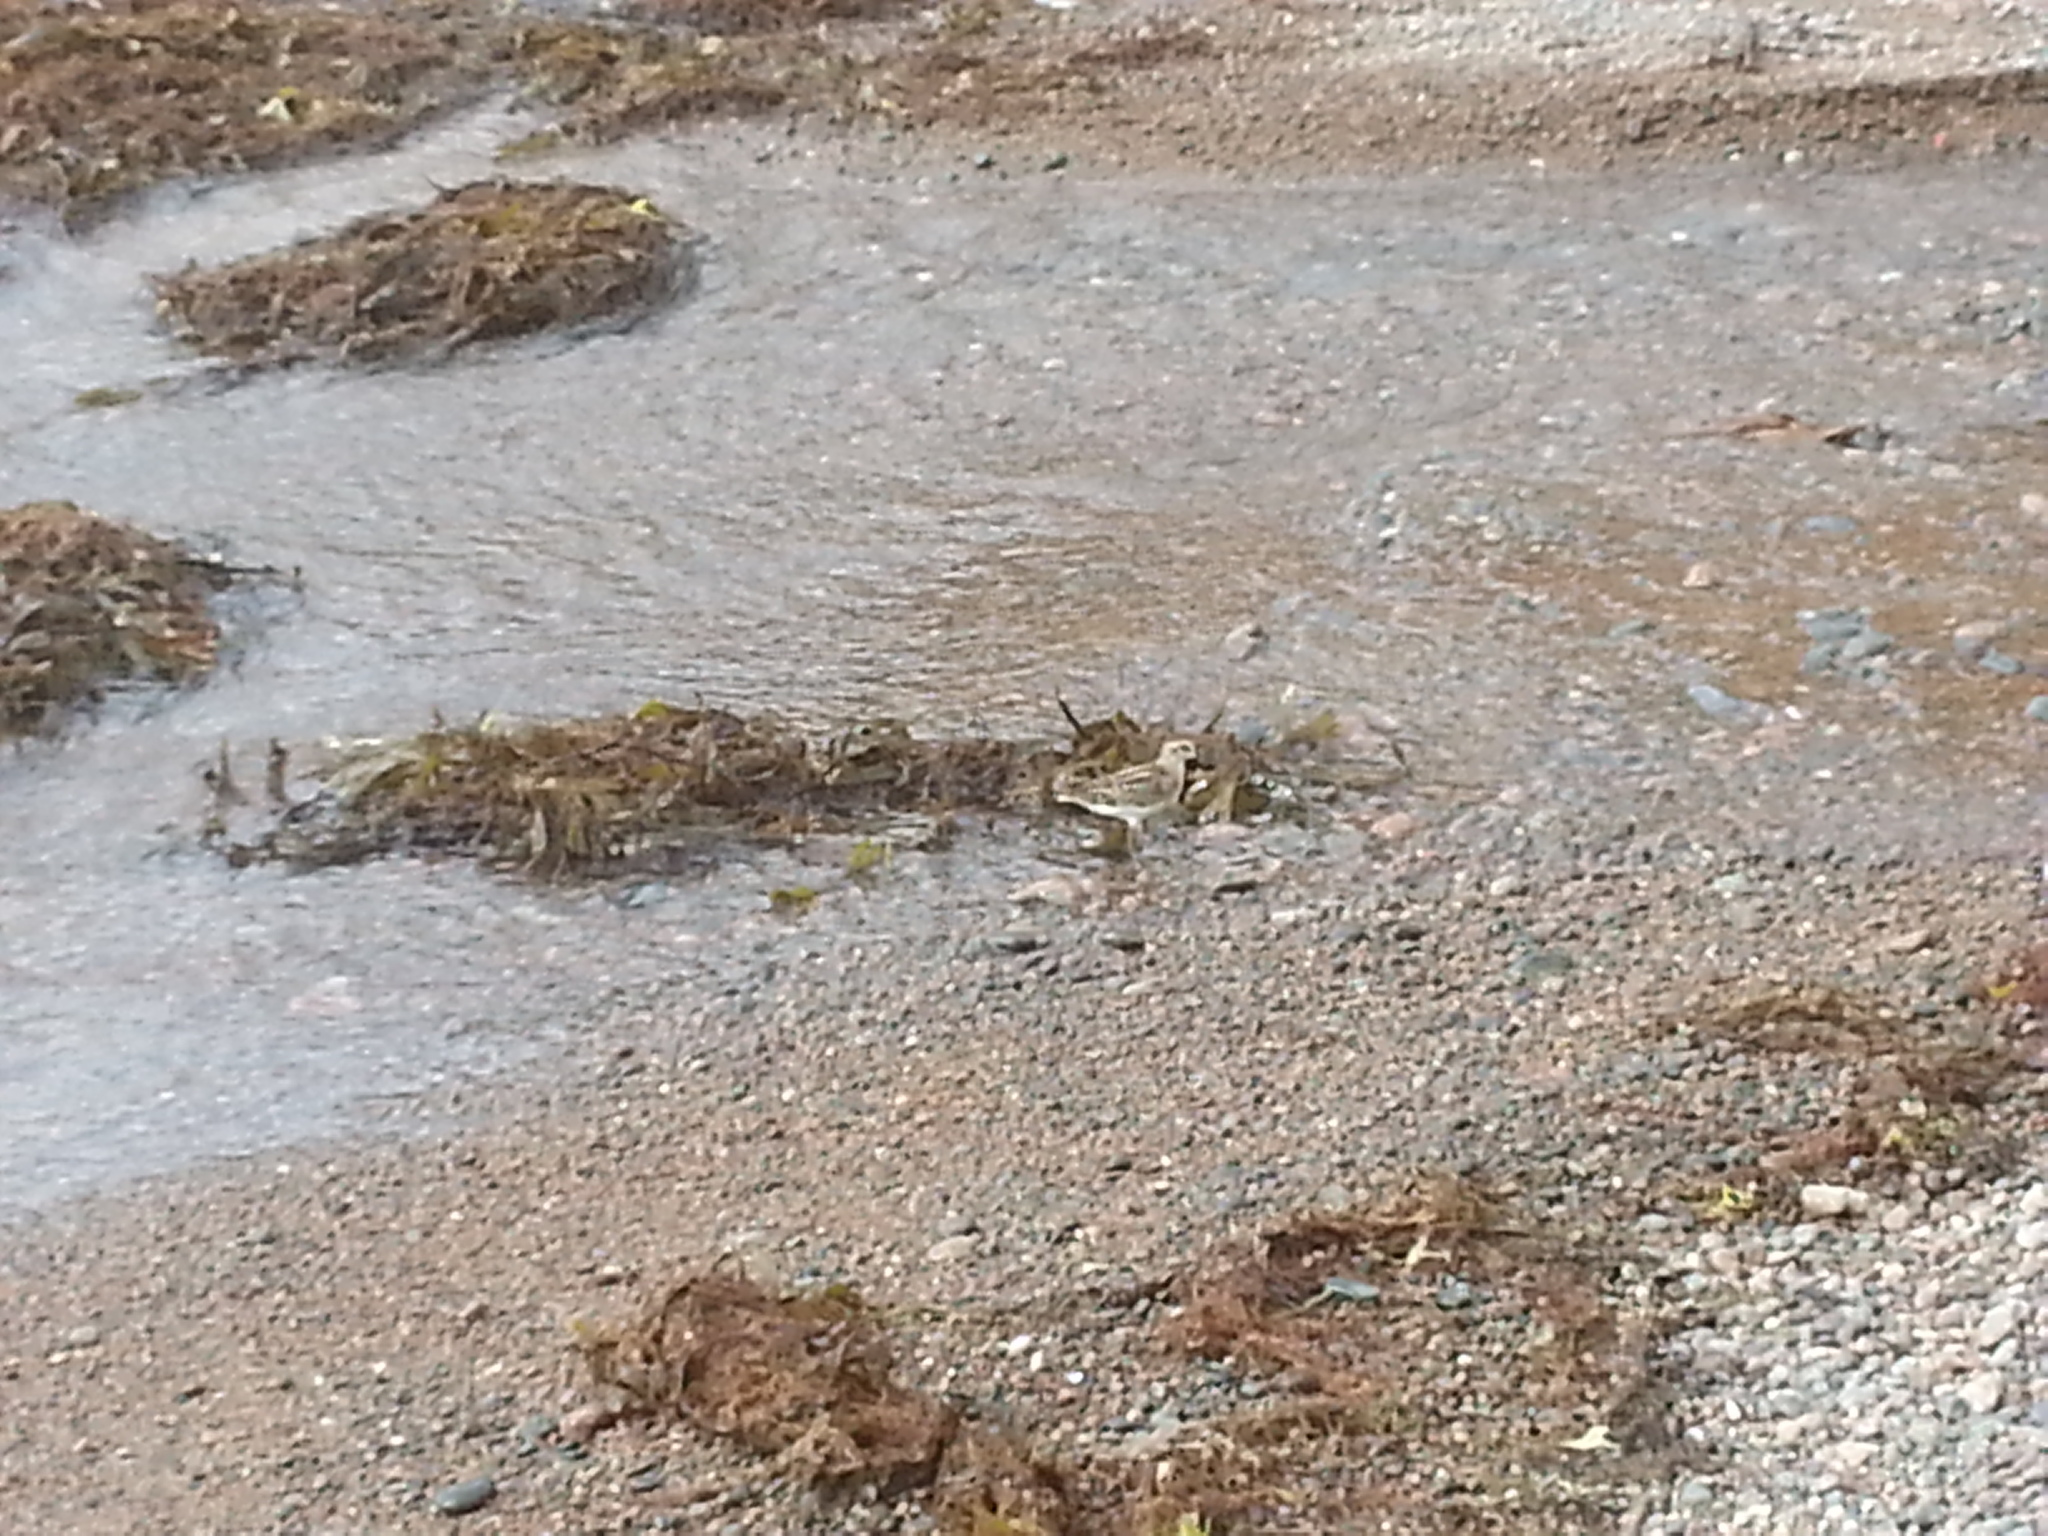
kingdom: Animalia
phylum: Chordata
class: Aves
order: Charadriiformes
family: Scolopacidae
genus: Calidris
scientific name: Calidris pusilla
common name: Semipalmated sandpiper
